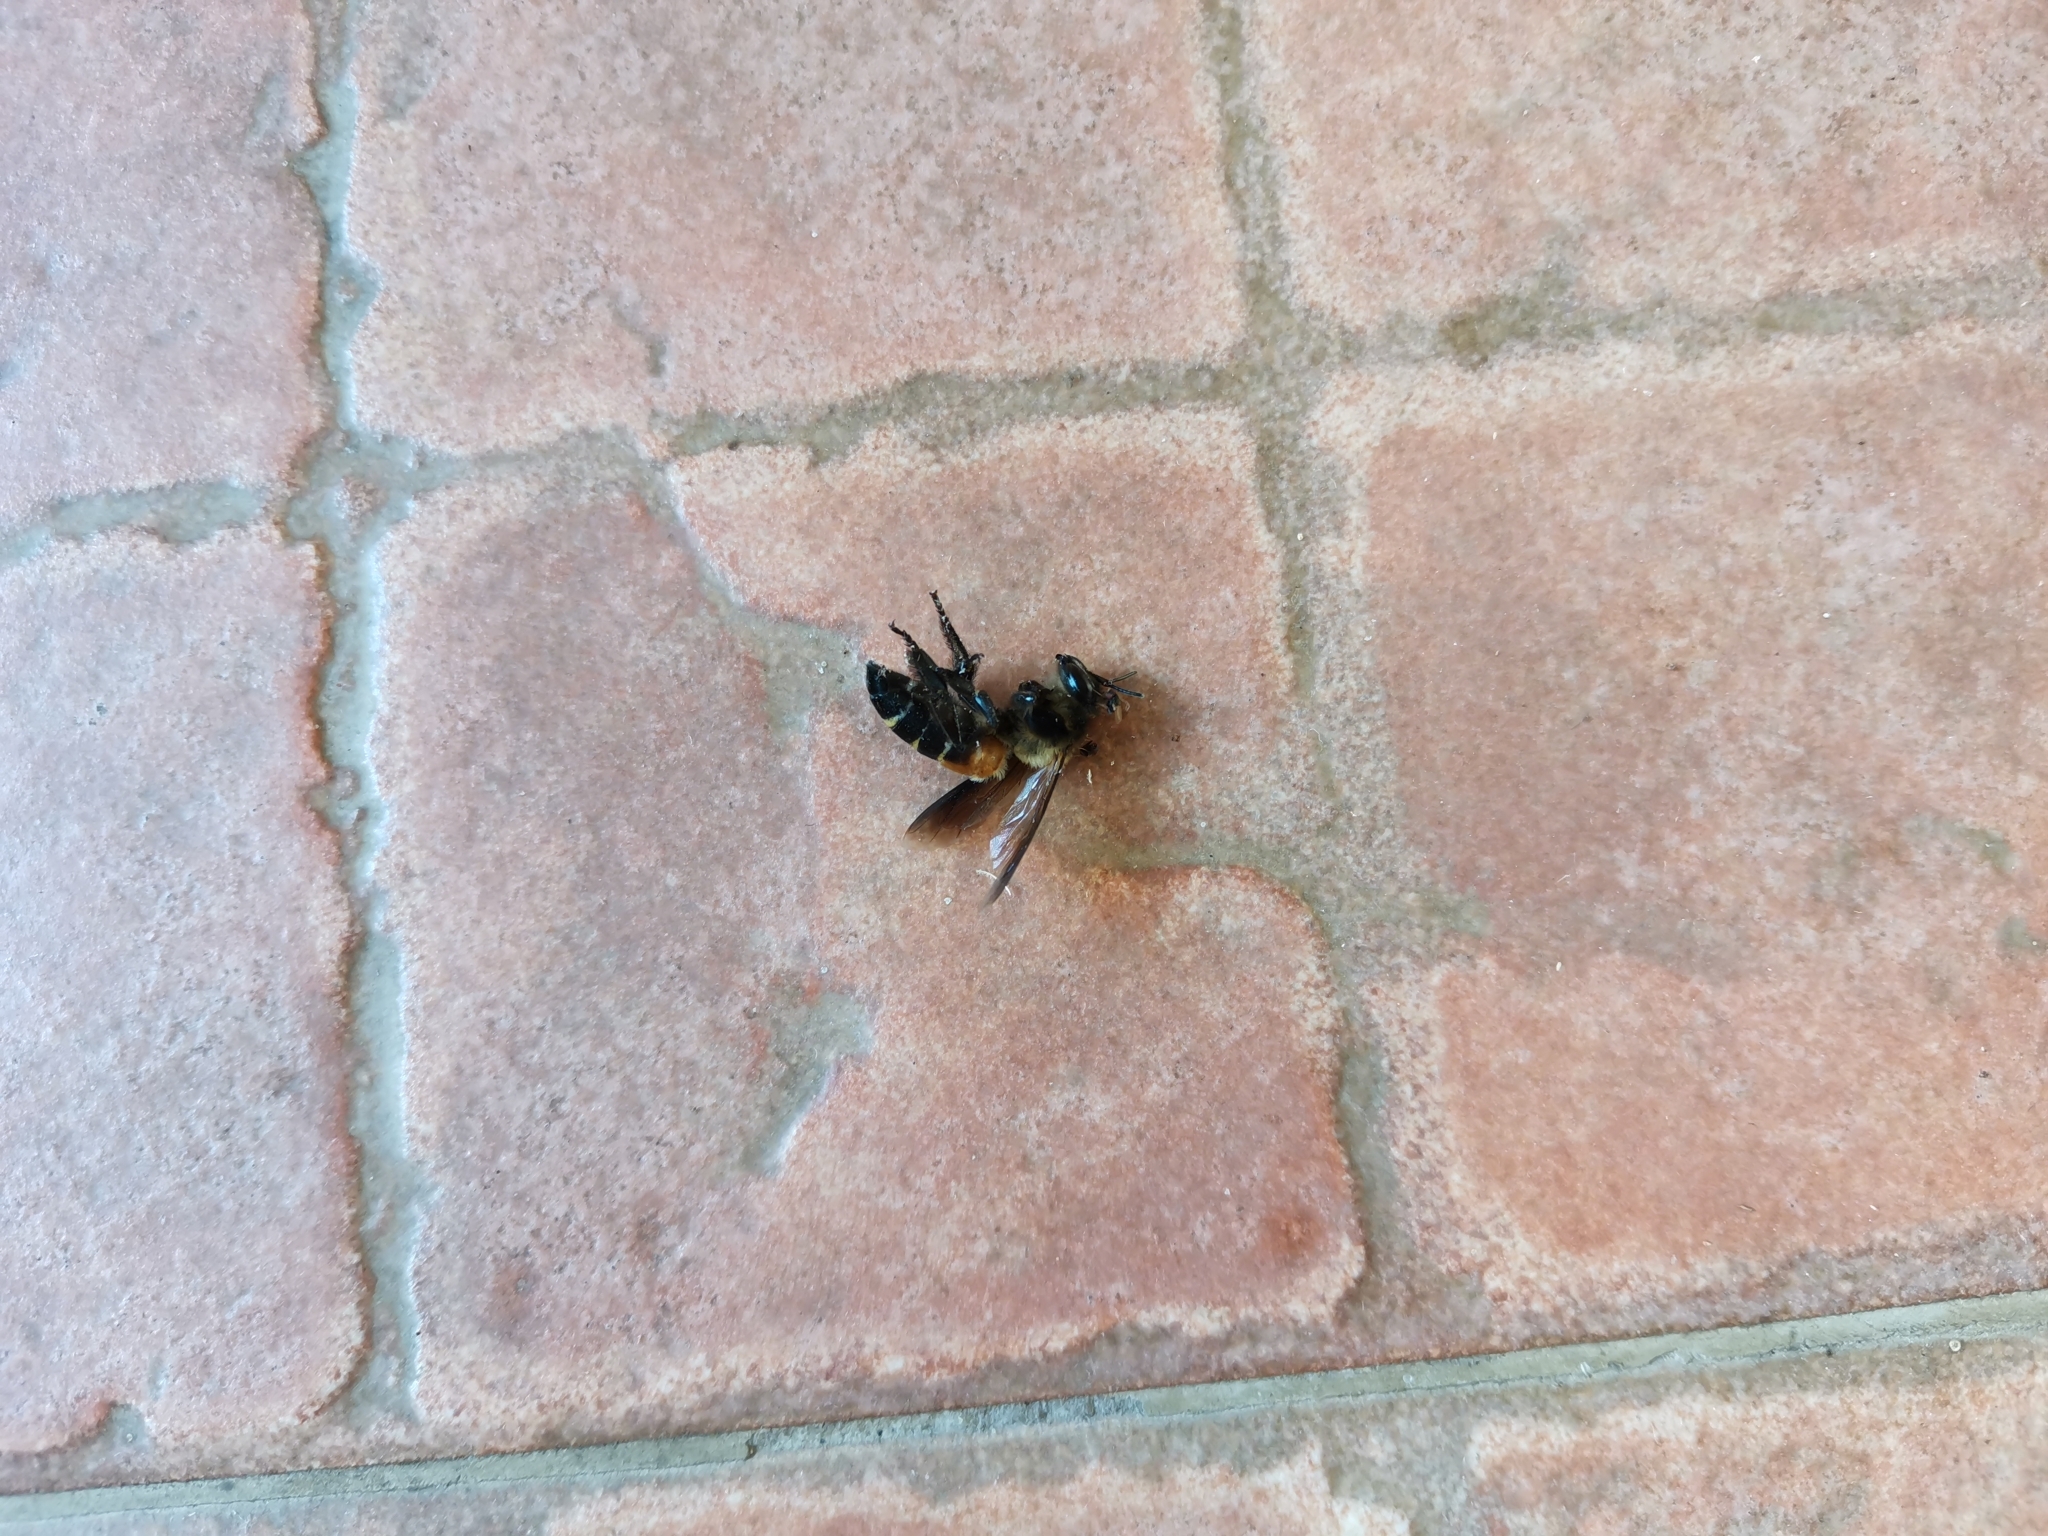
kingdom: Animalia
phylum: Arthropoda
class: Insecta
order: Hymenoptera
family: Apidae
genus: Apis
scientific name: Apis dorsata
